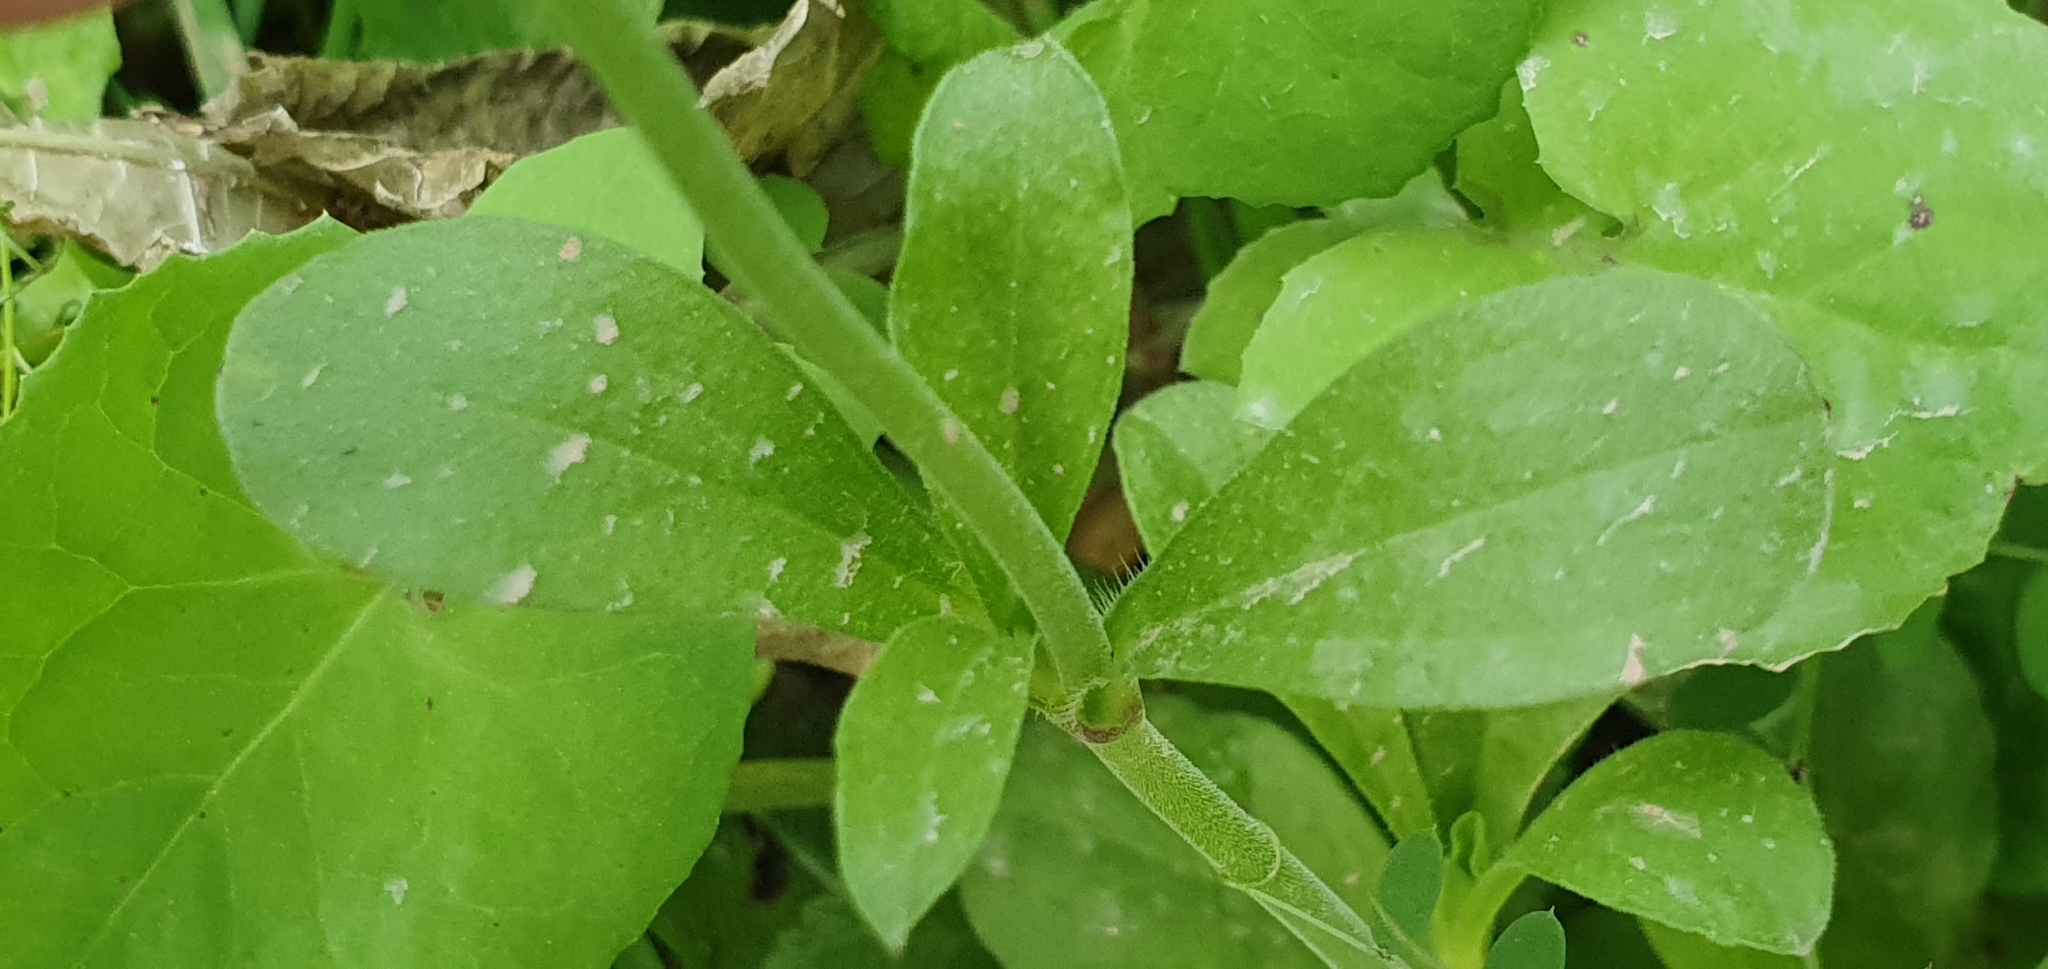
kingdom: Plantae
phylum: Tracheophyta
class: Magnoliopsida
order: Caryophyllales
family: Caryophyllaceae
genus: Silene
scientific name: Silene colorata
